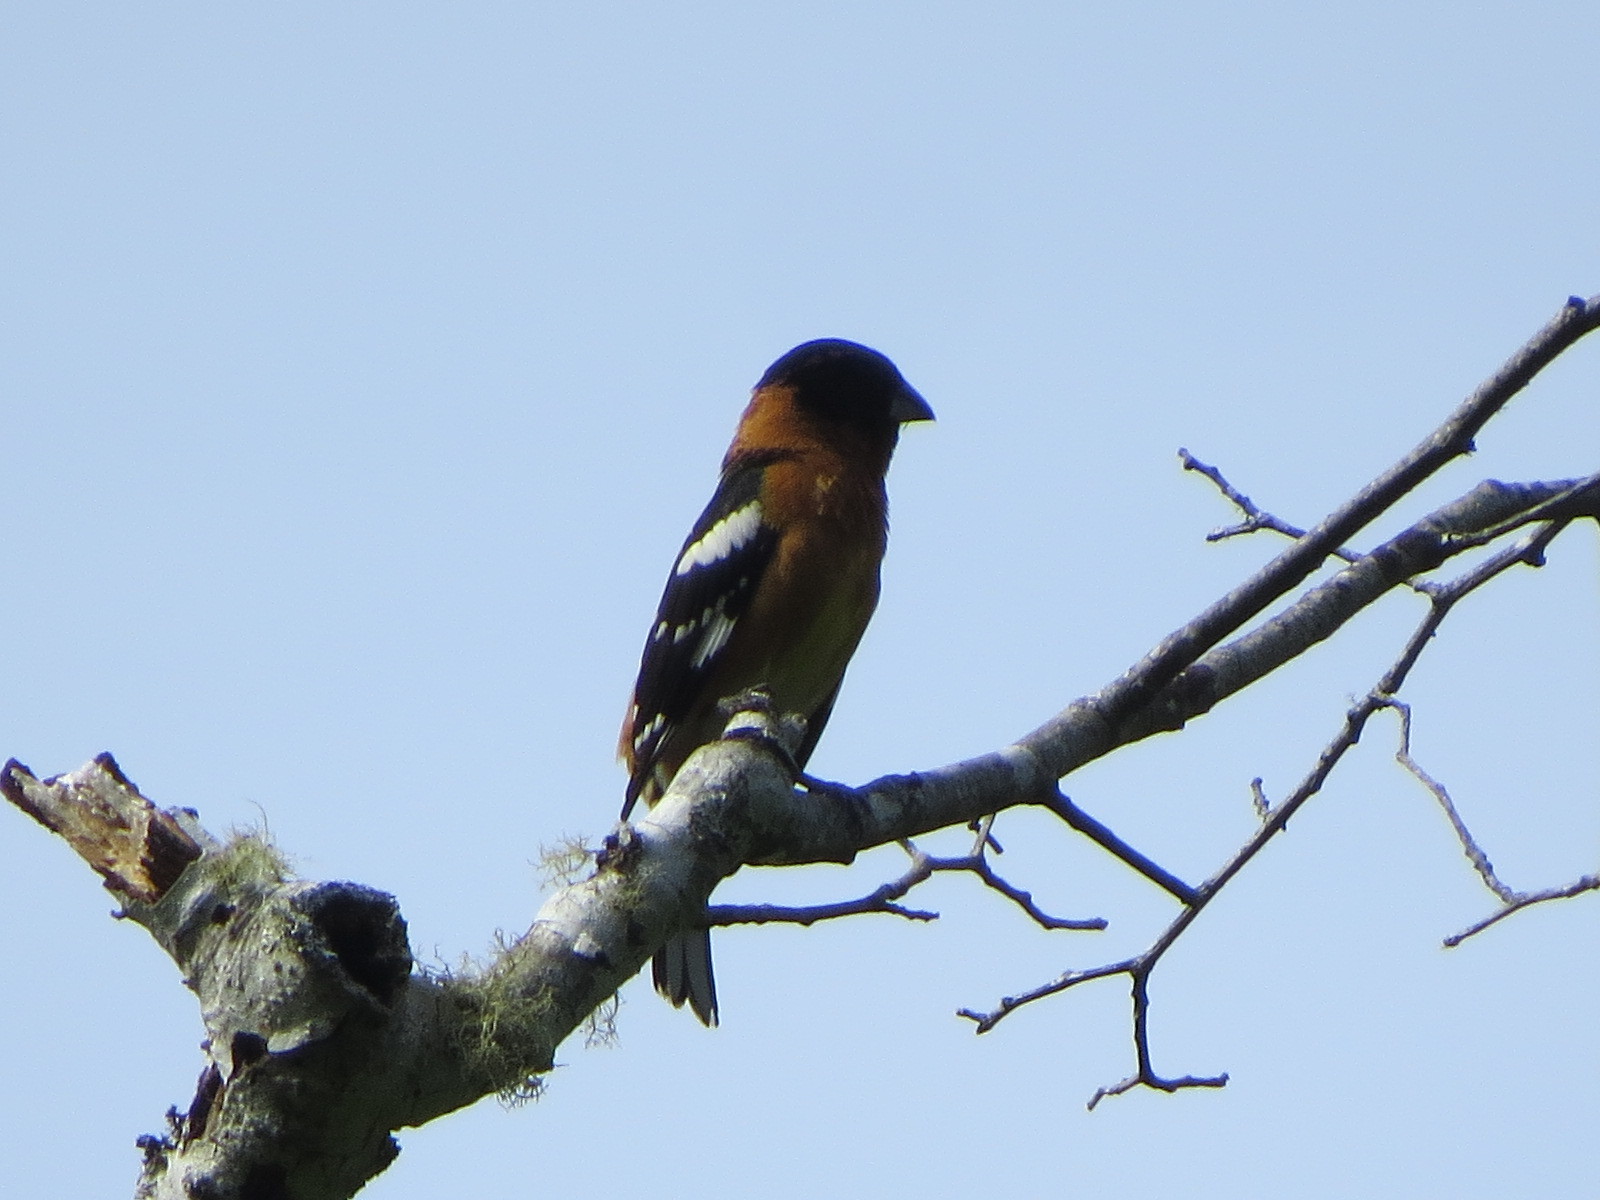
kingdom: Animalia
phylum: Chordata
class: Aves
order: Passeriformes
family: Cardinalidae
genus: Pheucticus
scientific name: Pheucticus melanocephalus
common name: Black-headed grosbeak
